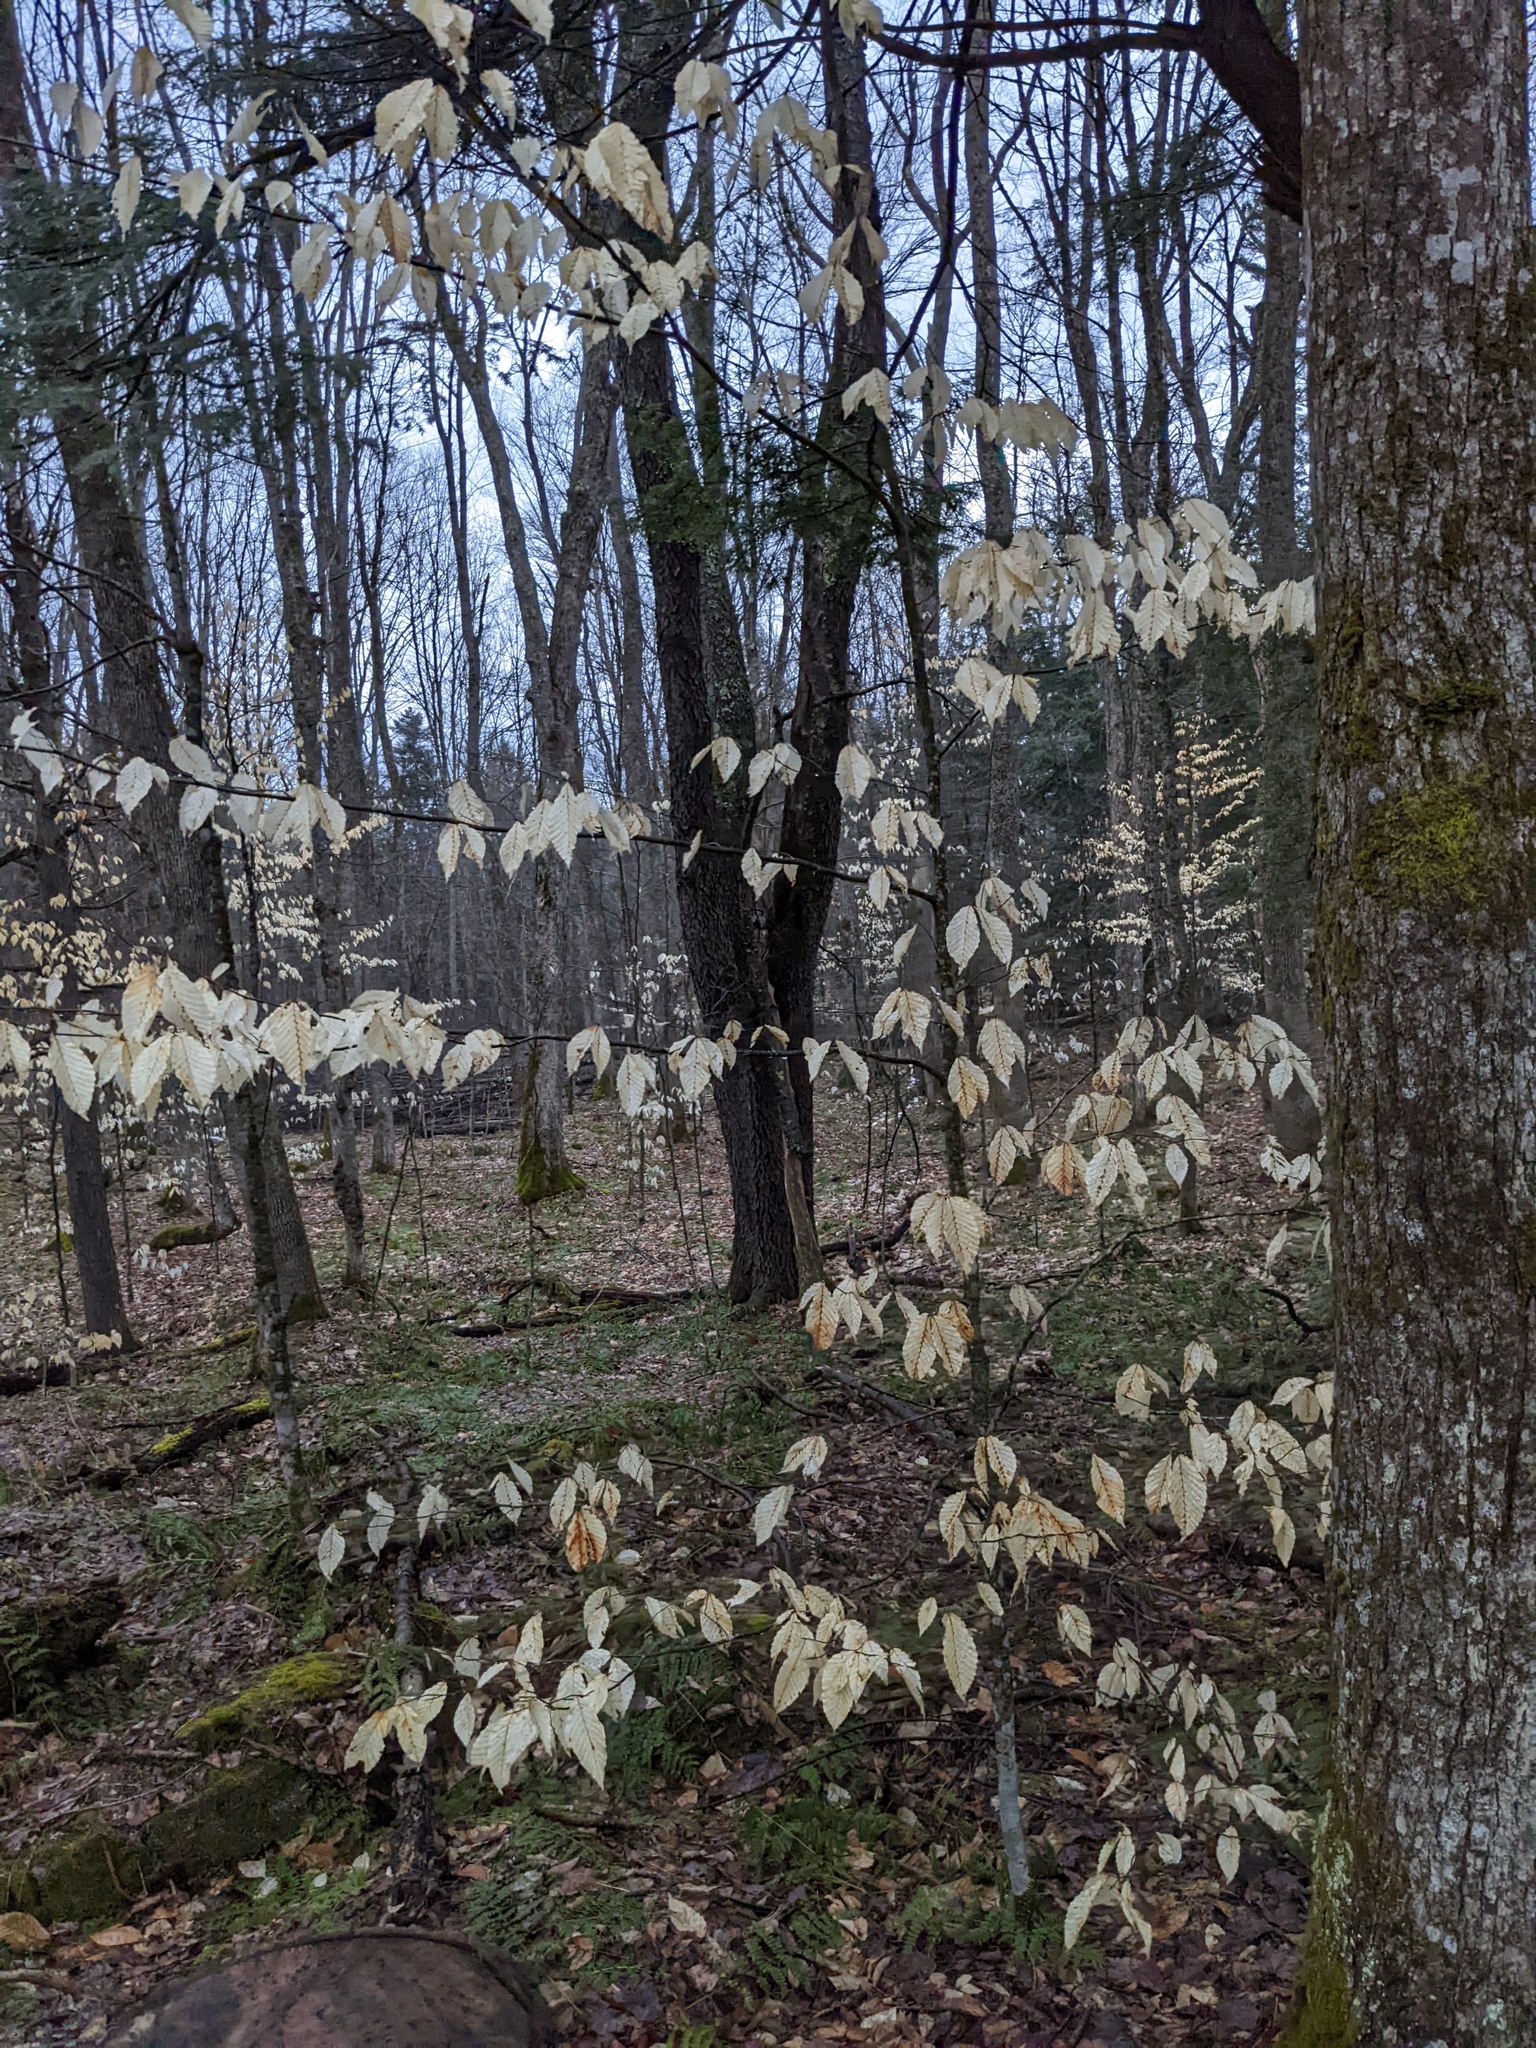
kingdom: Plantae
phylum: Tracheophyta
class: Magnoliopsida
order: Fagales
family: Fagaceae
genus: Fagus
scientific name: Fagus grandifolia
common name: American beech
